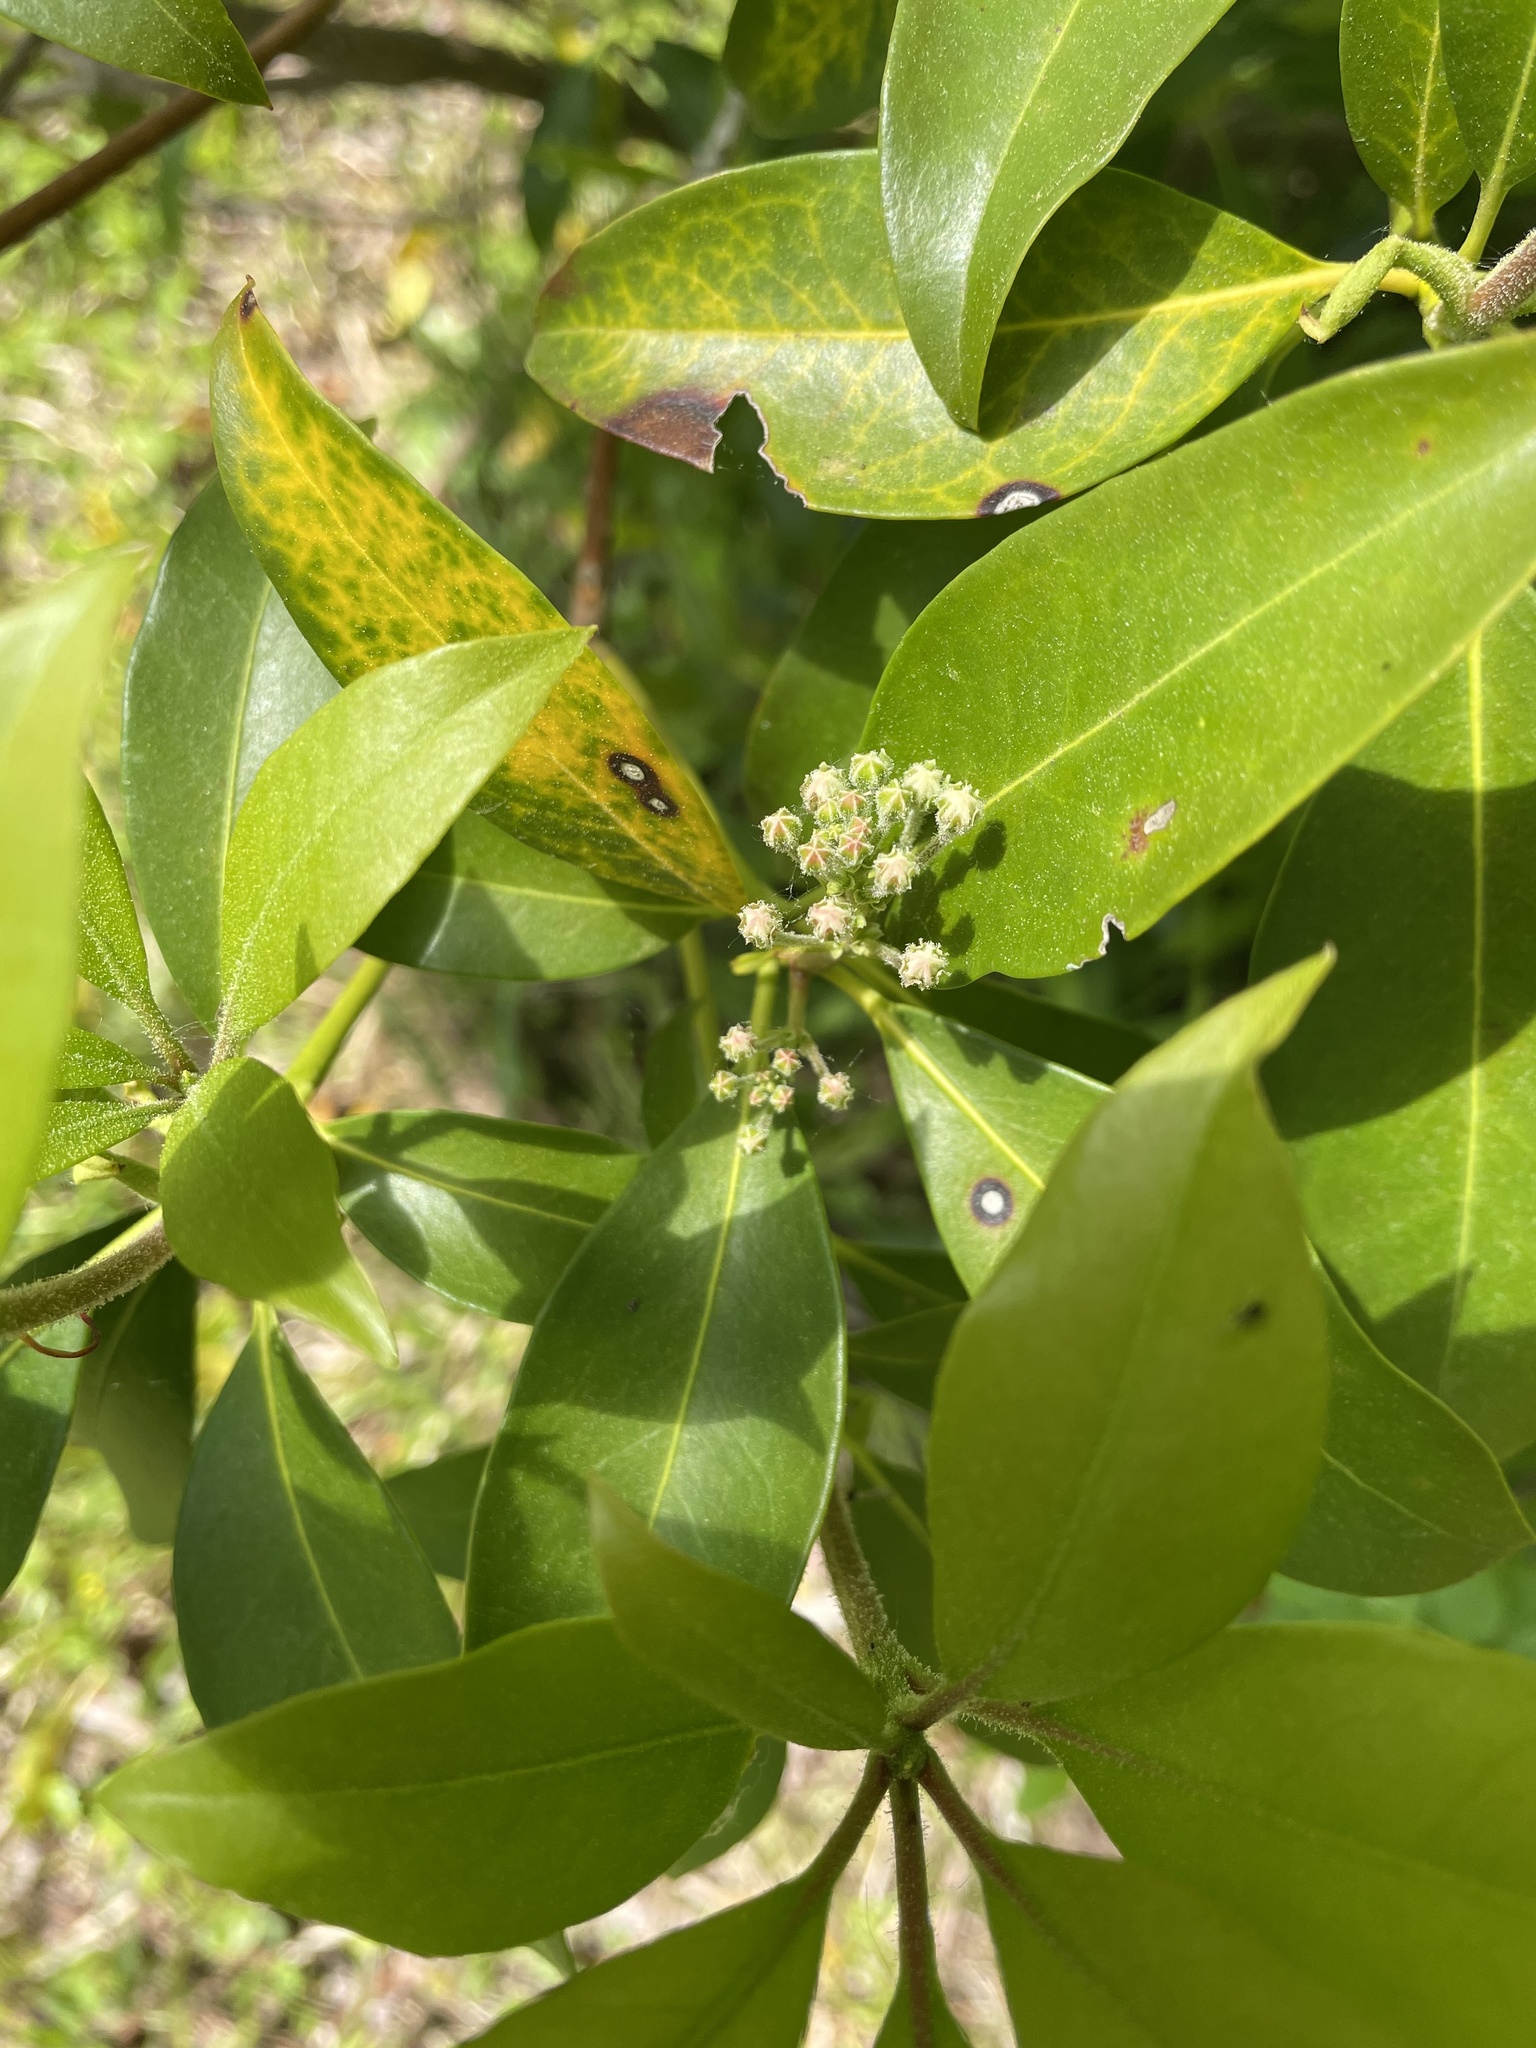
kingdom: Plantae
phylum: Tracheophyta
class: Magnoliopsida
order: Ericales
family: Ericaceae
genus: Kalmia
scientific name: Kalmia latifolia
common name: Mountain-laurel
